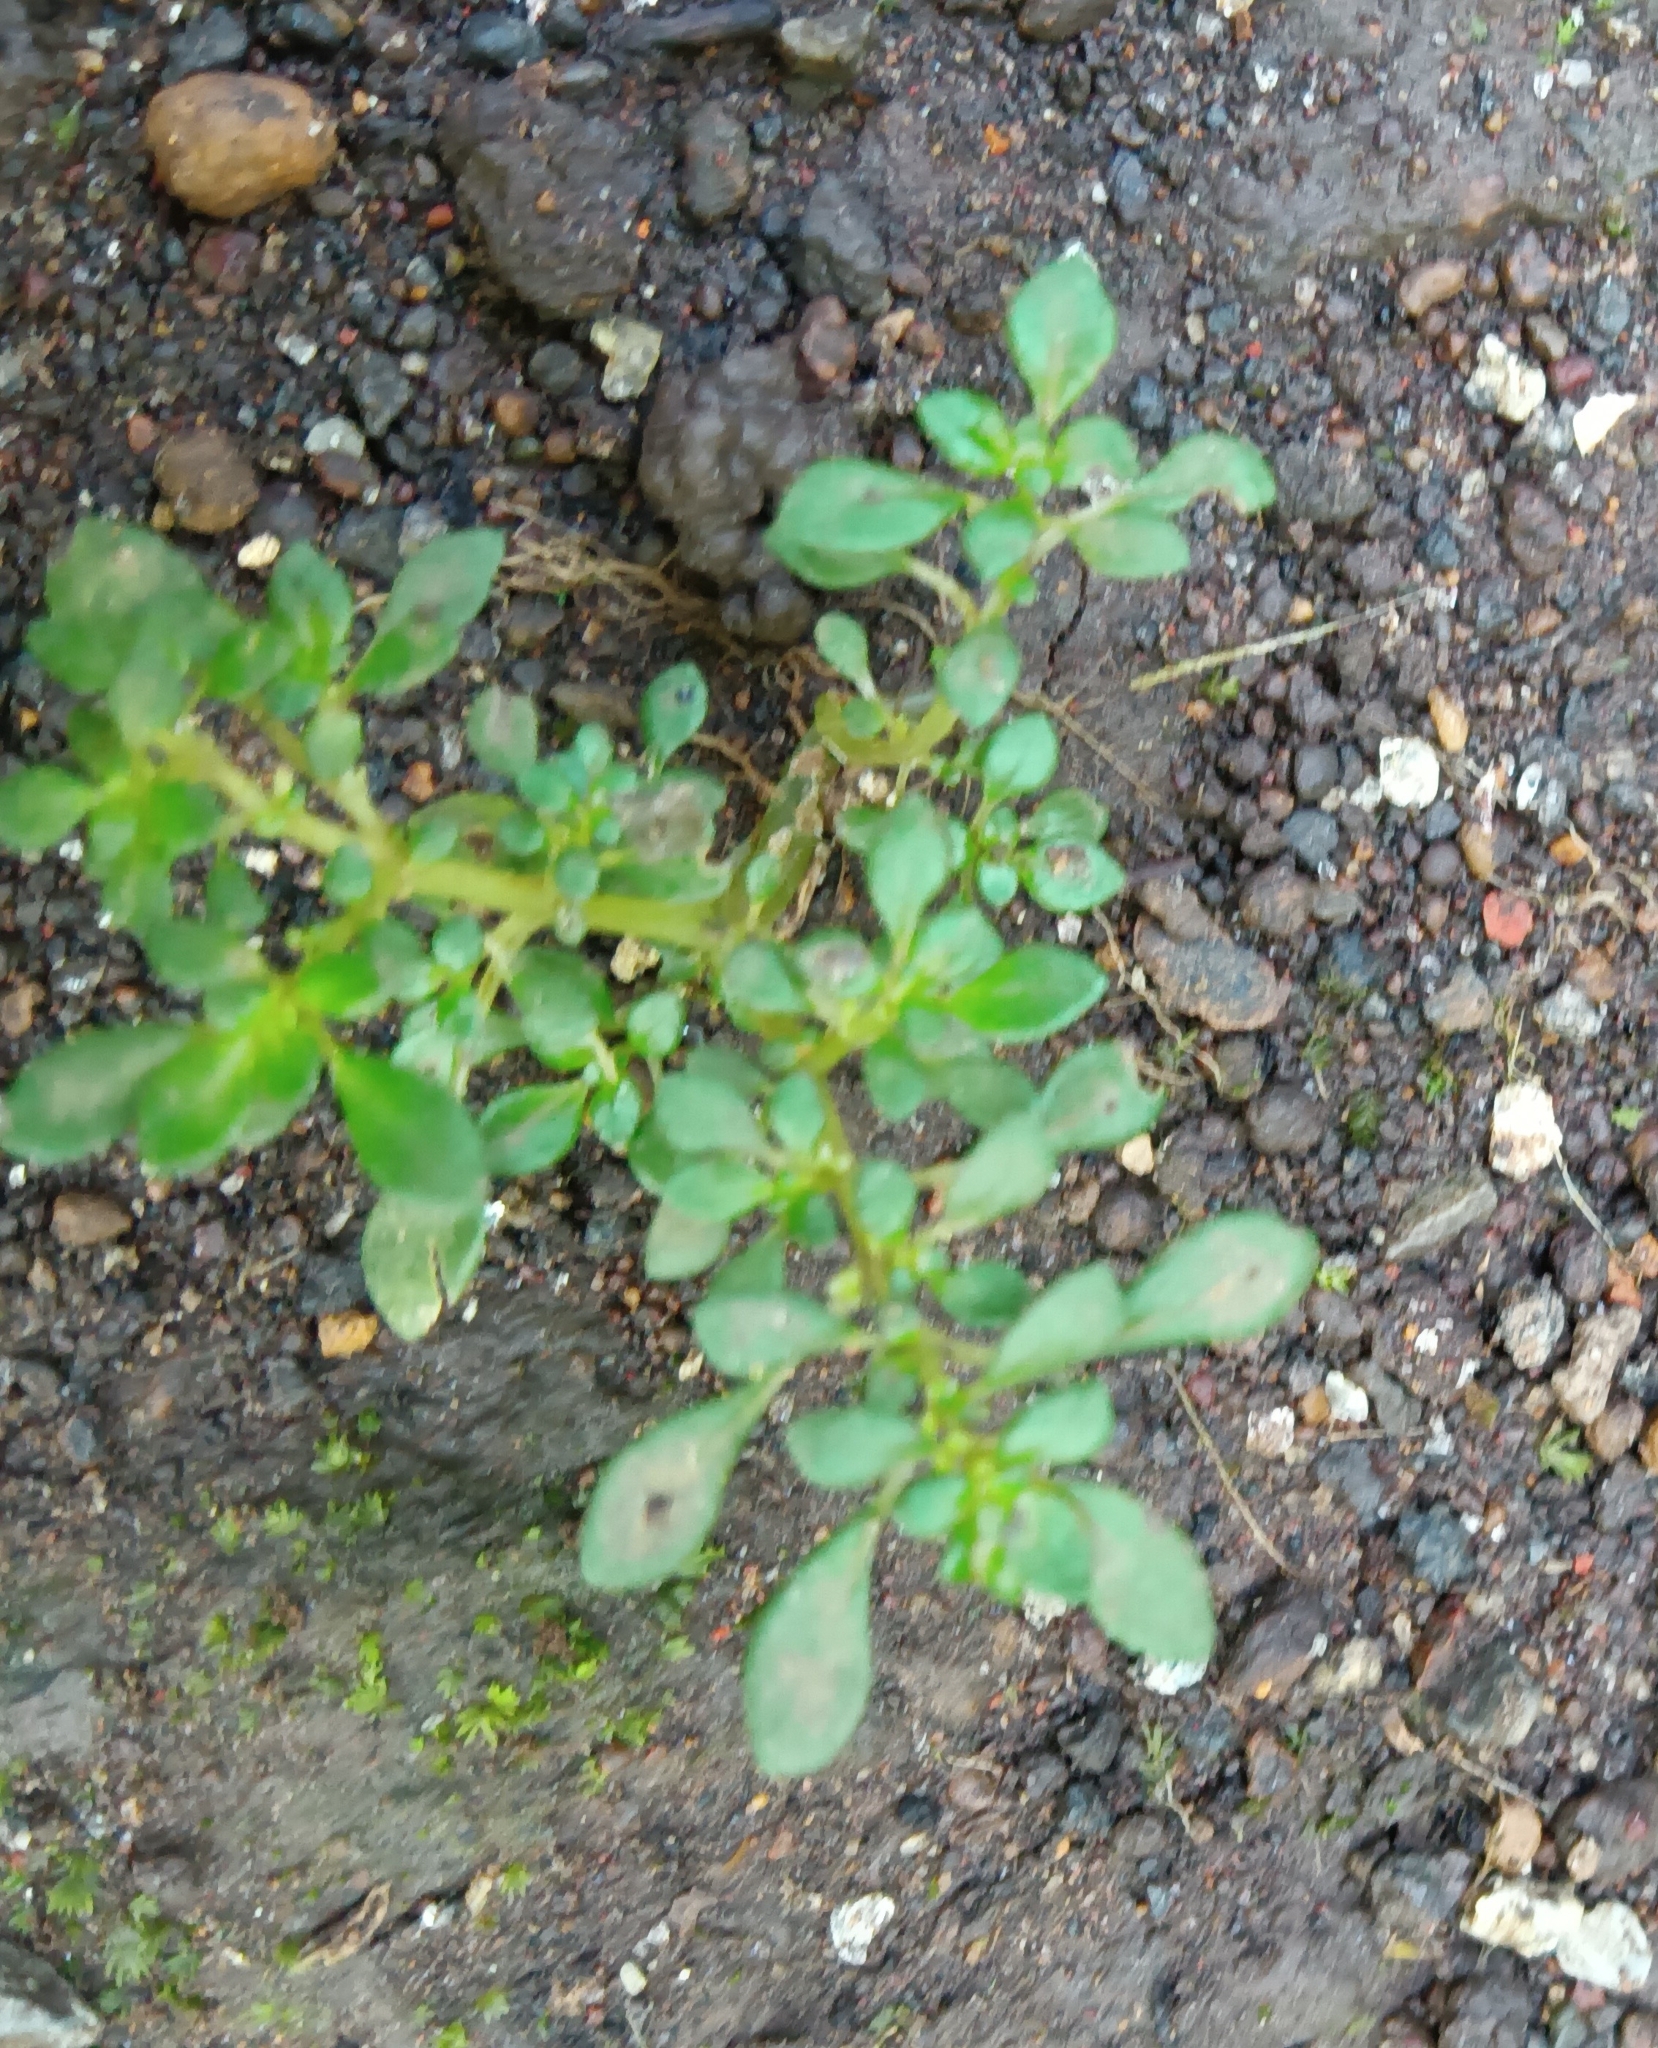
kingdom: Plantae
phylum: Tracheophyta
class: Magnoliopsida
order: Rosales
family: Urticaceae
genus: Pilea
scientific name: Pilea microphylla
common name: Artillery-plant
